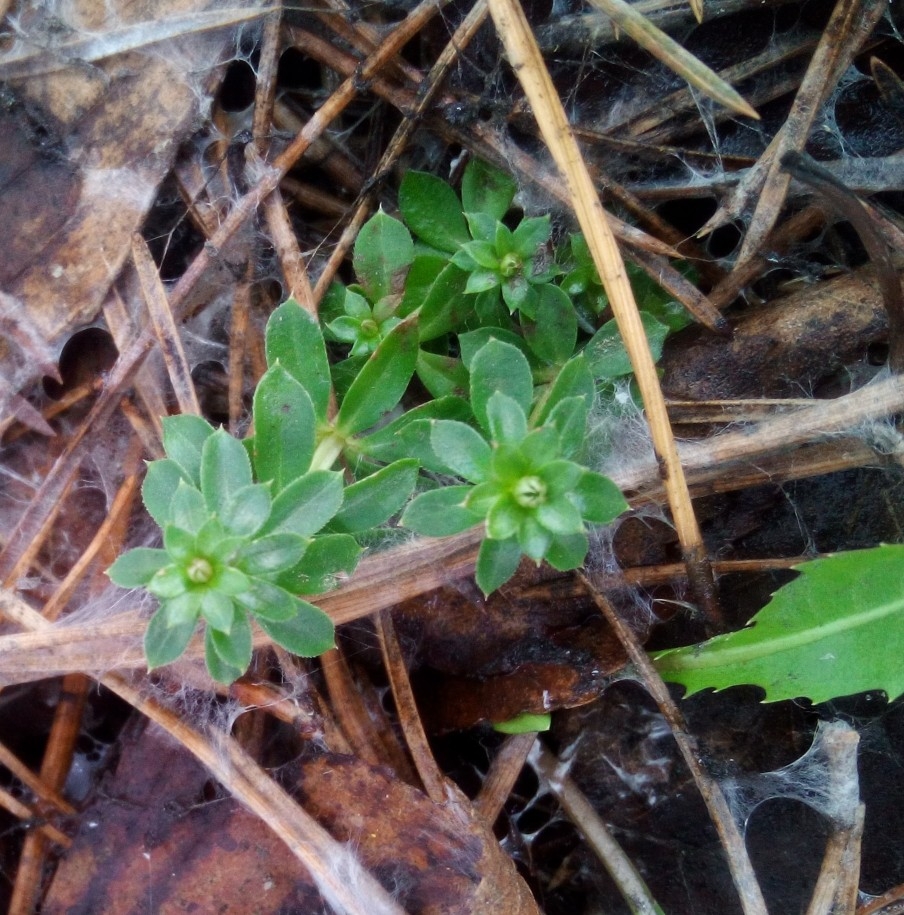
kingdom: Plantae
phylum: Tracheophyta
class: Magnoliopsida
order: Gentianales
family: Rubiaceae
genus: Galium
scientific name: Galium mollugo
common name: Hedge bedstraw
